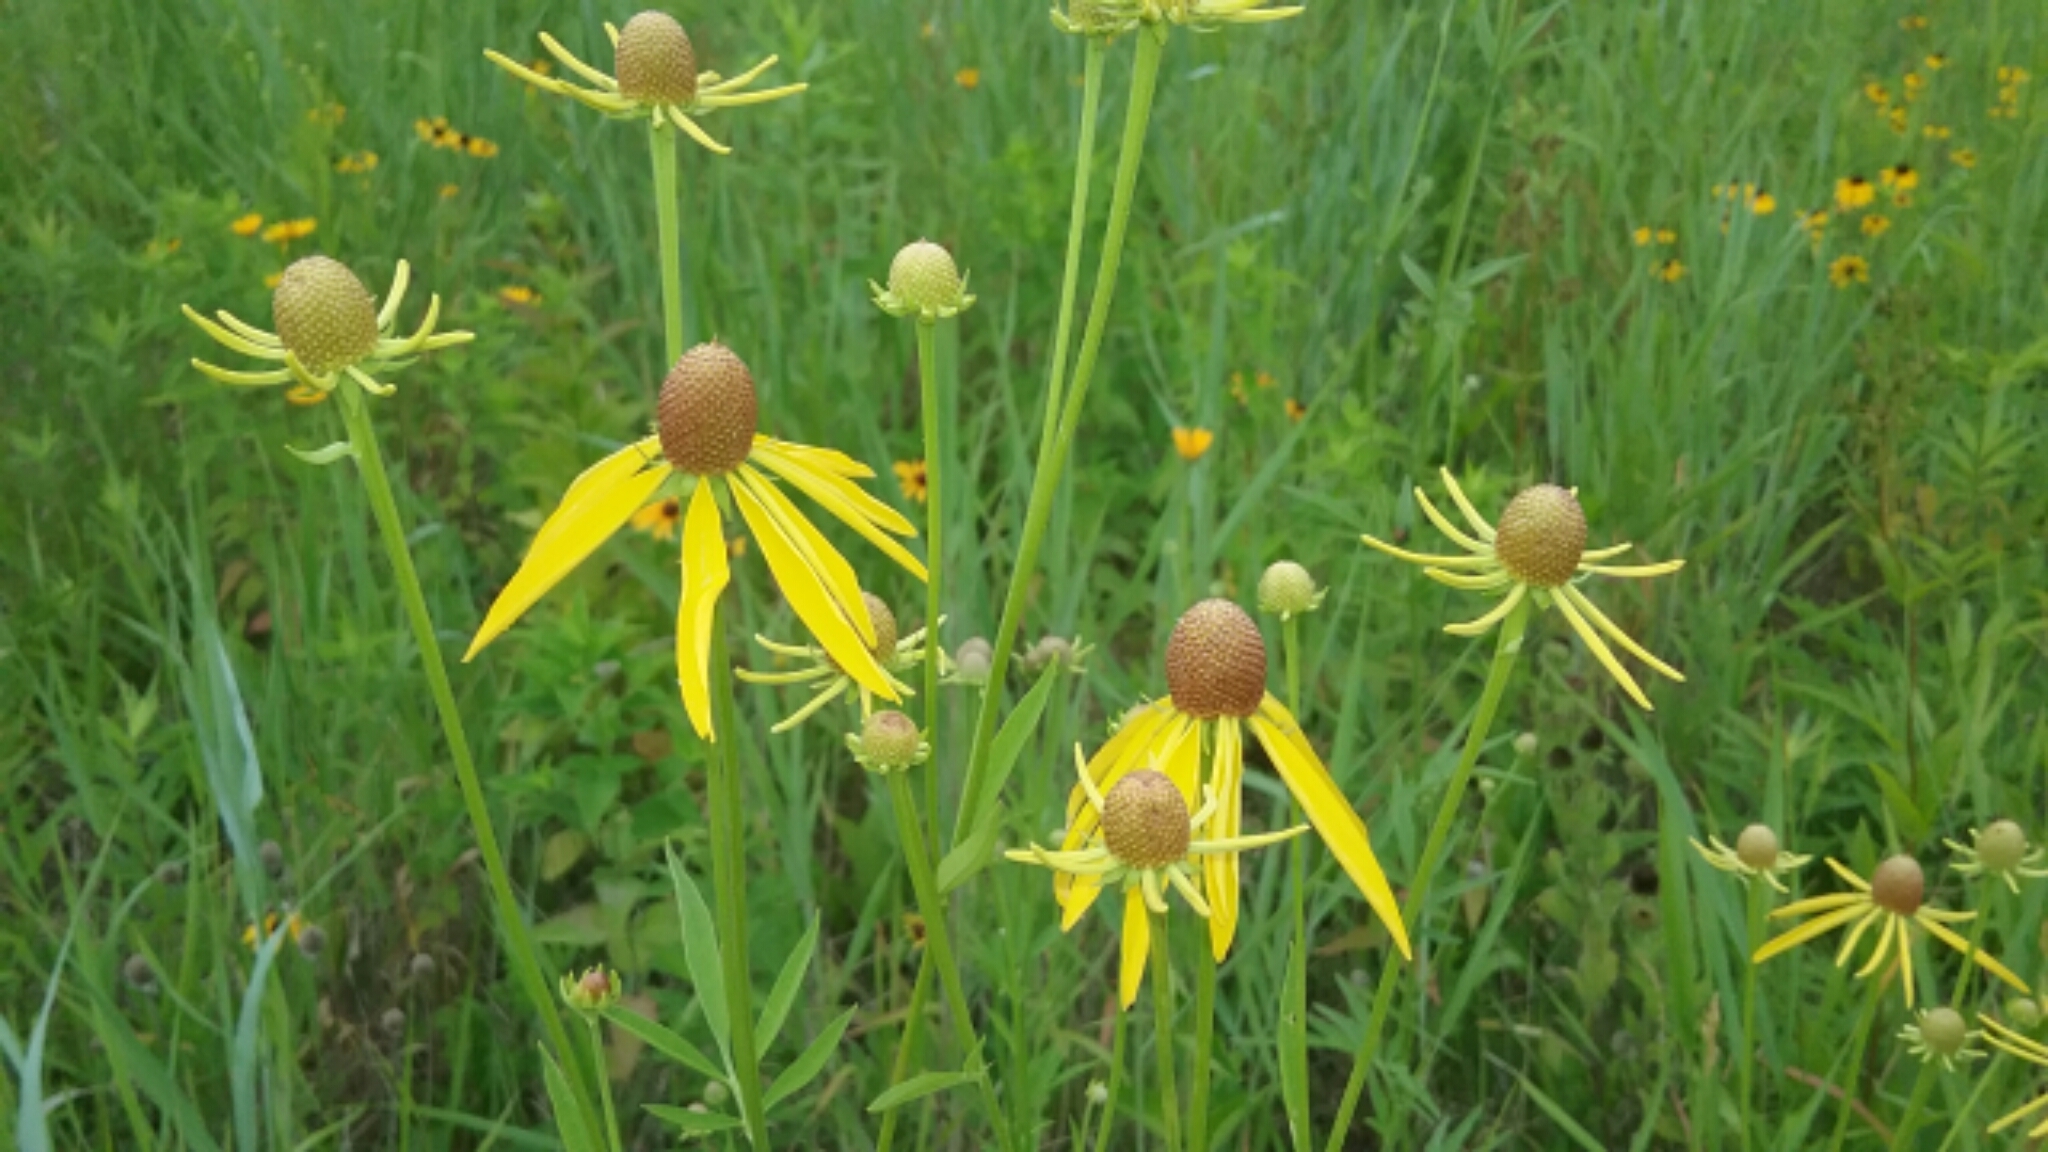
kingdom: Plantae
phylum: Tracheophyta
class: Magnoliopsida
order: Asterales
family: Asteraceae
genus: Ratibida
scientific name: Ratibida pinnata
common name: Drooping prairie-coneflower
